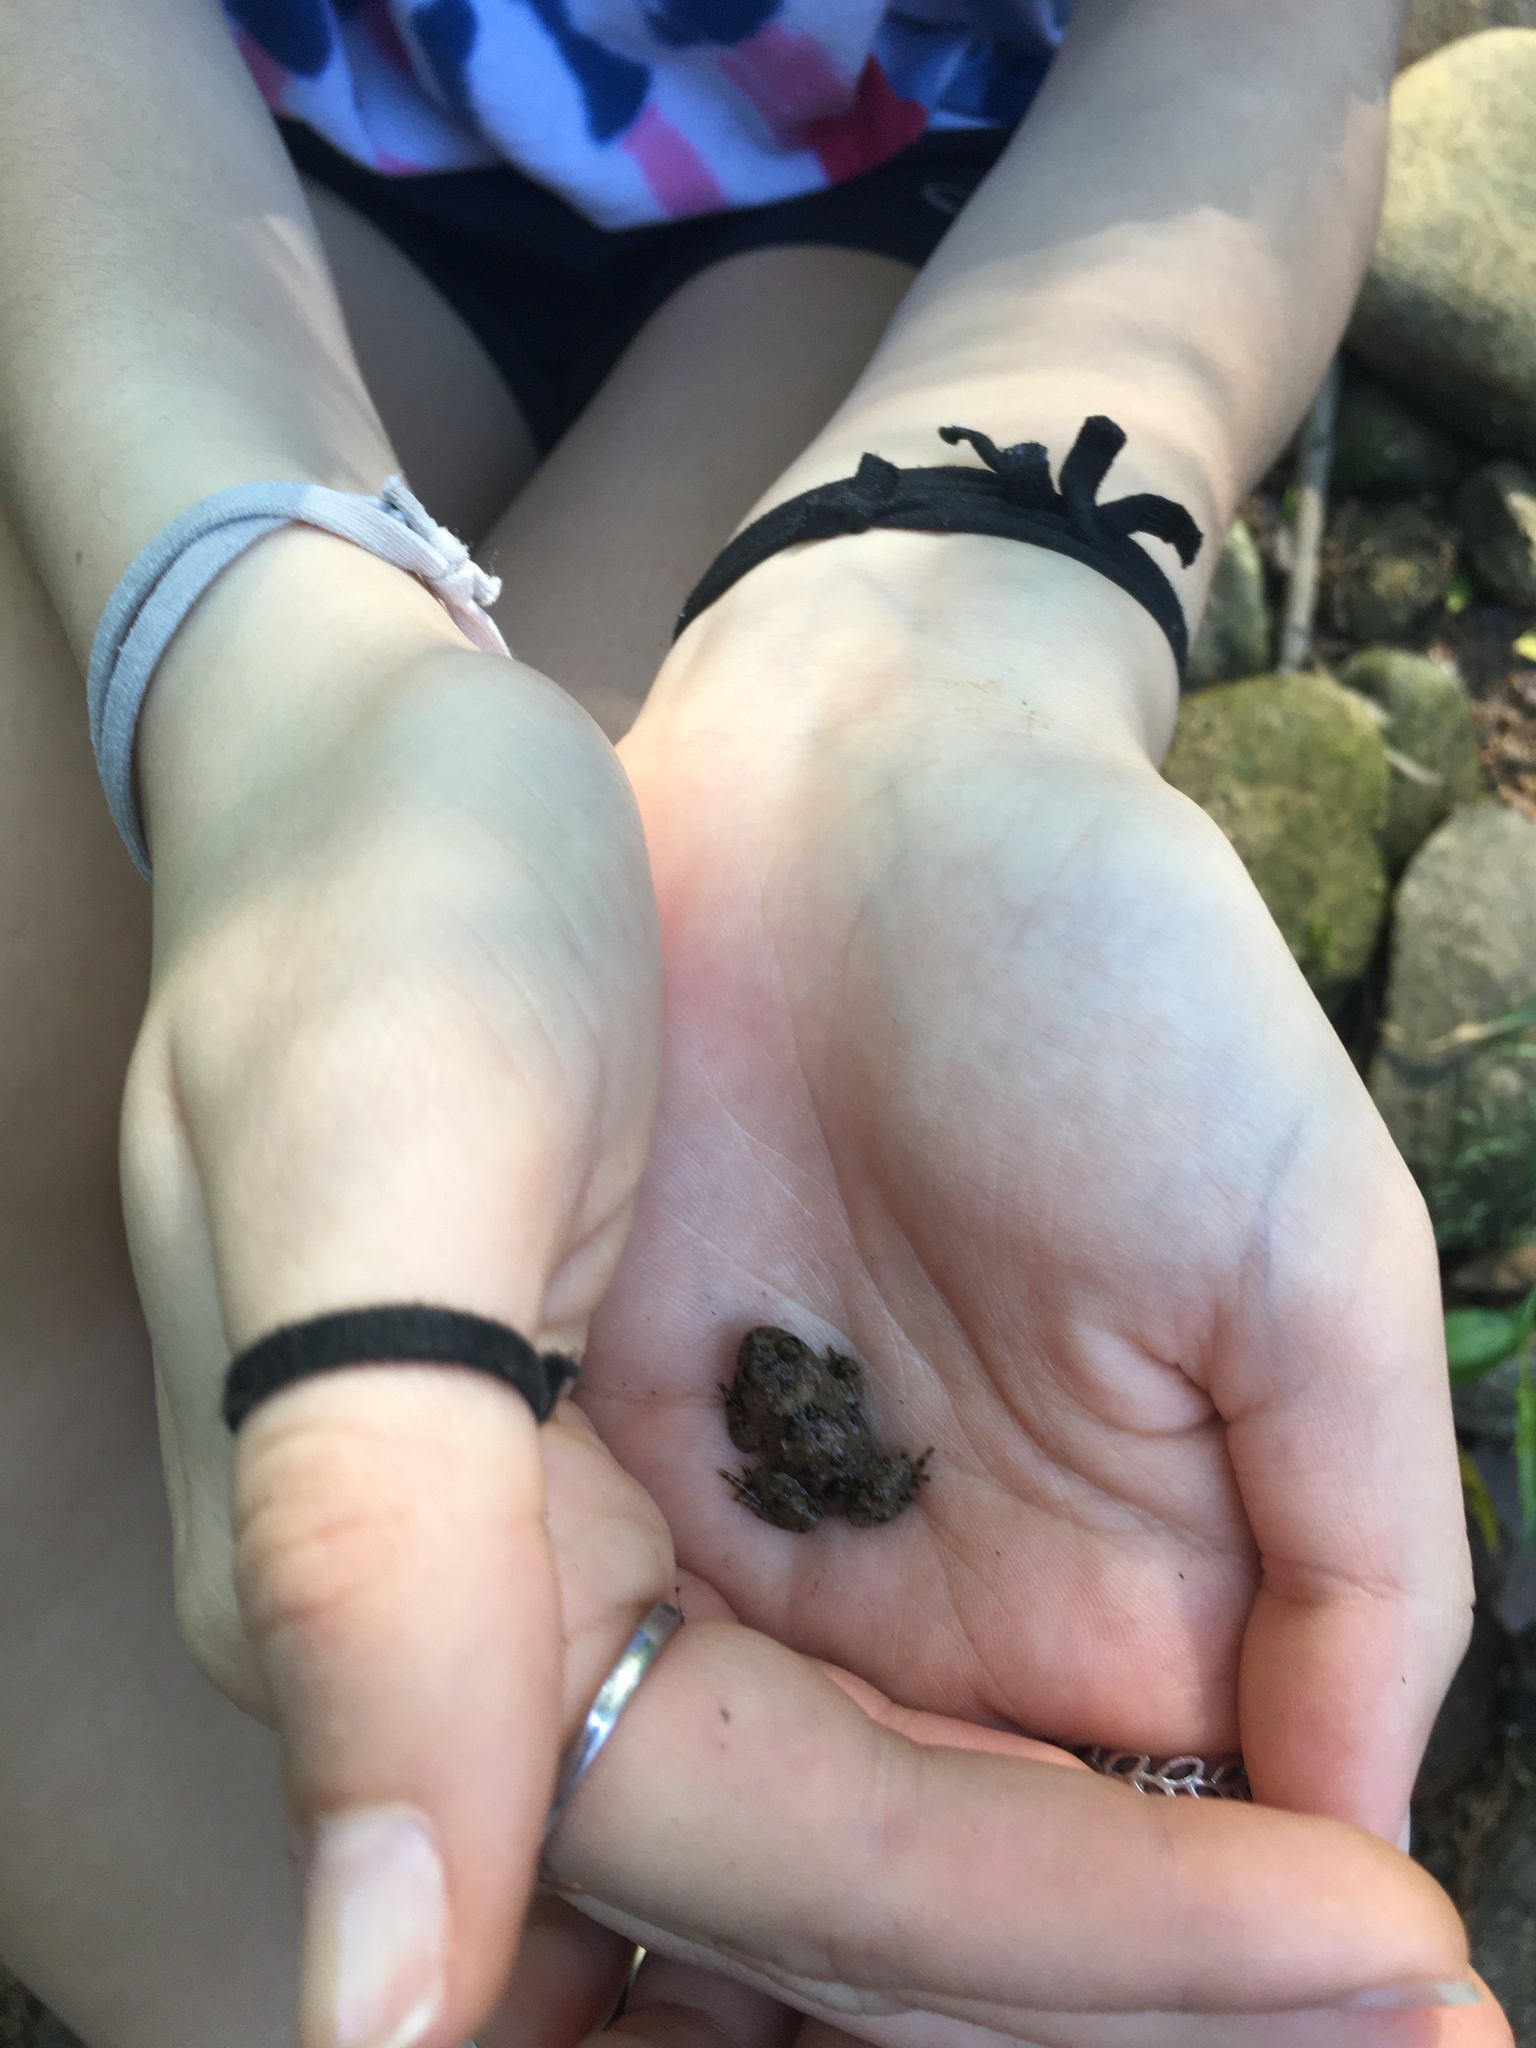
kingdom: Animalia
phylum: Chordata
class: Amphibia
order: Anura
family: Bombinatoridae
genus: Bombina
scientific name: Bombina variegata
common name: Yellow-bellied toad
